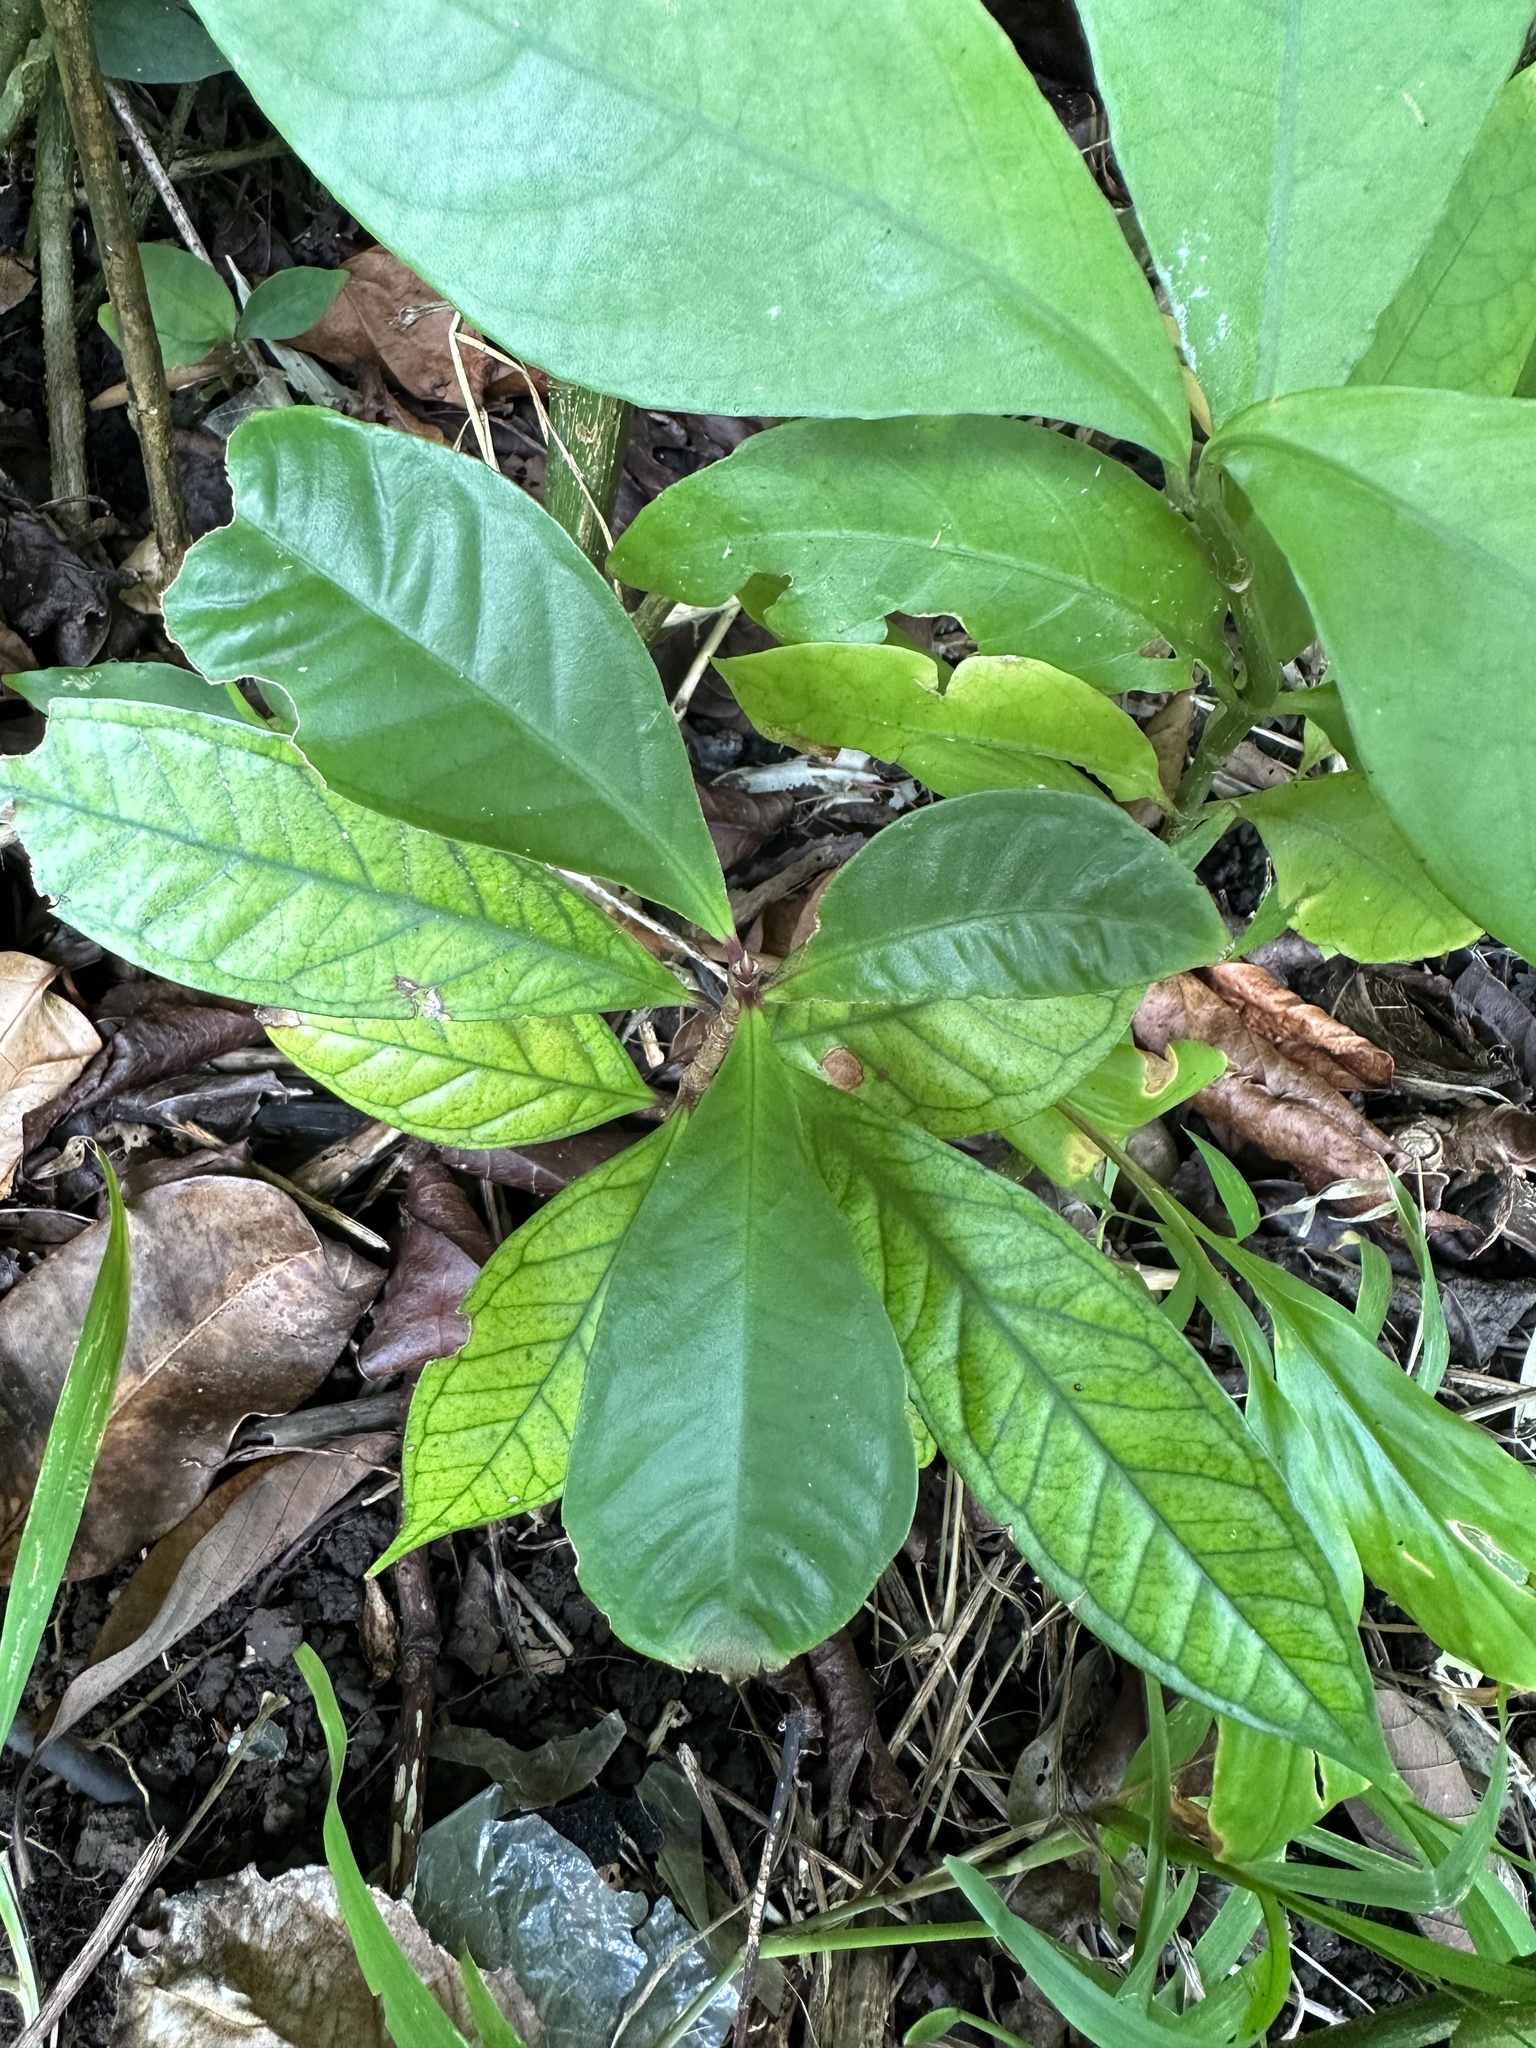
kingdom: Plantae
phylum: Tracheophyta
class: Magnoliopsida
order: Myrtales
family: Myrtaceae
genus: Syzygium
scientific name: Syzygium malaccense
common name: Malaysian apple
